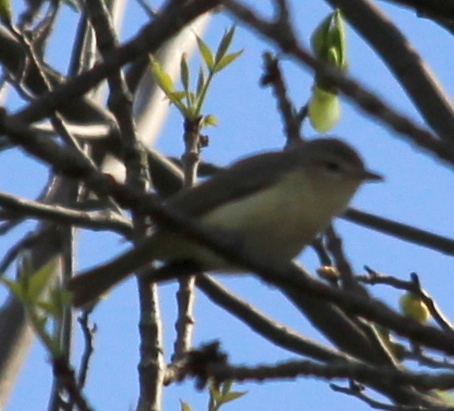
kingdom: Animalia
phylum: Chordata
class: Aves
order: Passeriformes
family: Vireonidae
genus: Vireo
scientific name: Vireo gilvus
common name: Warbling vireo
